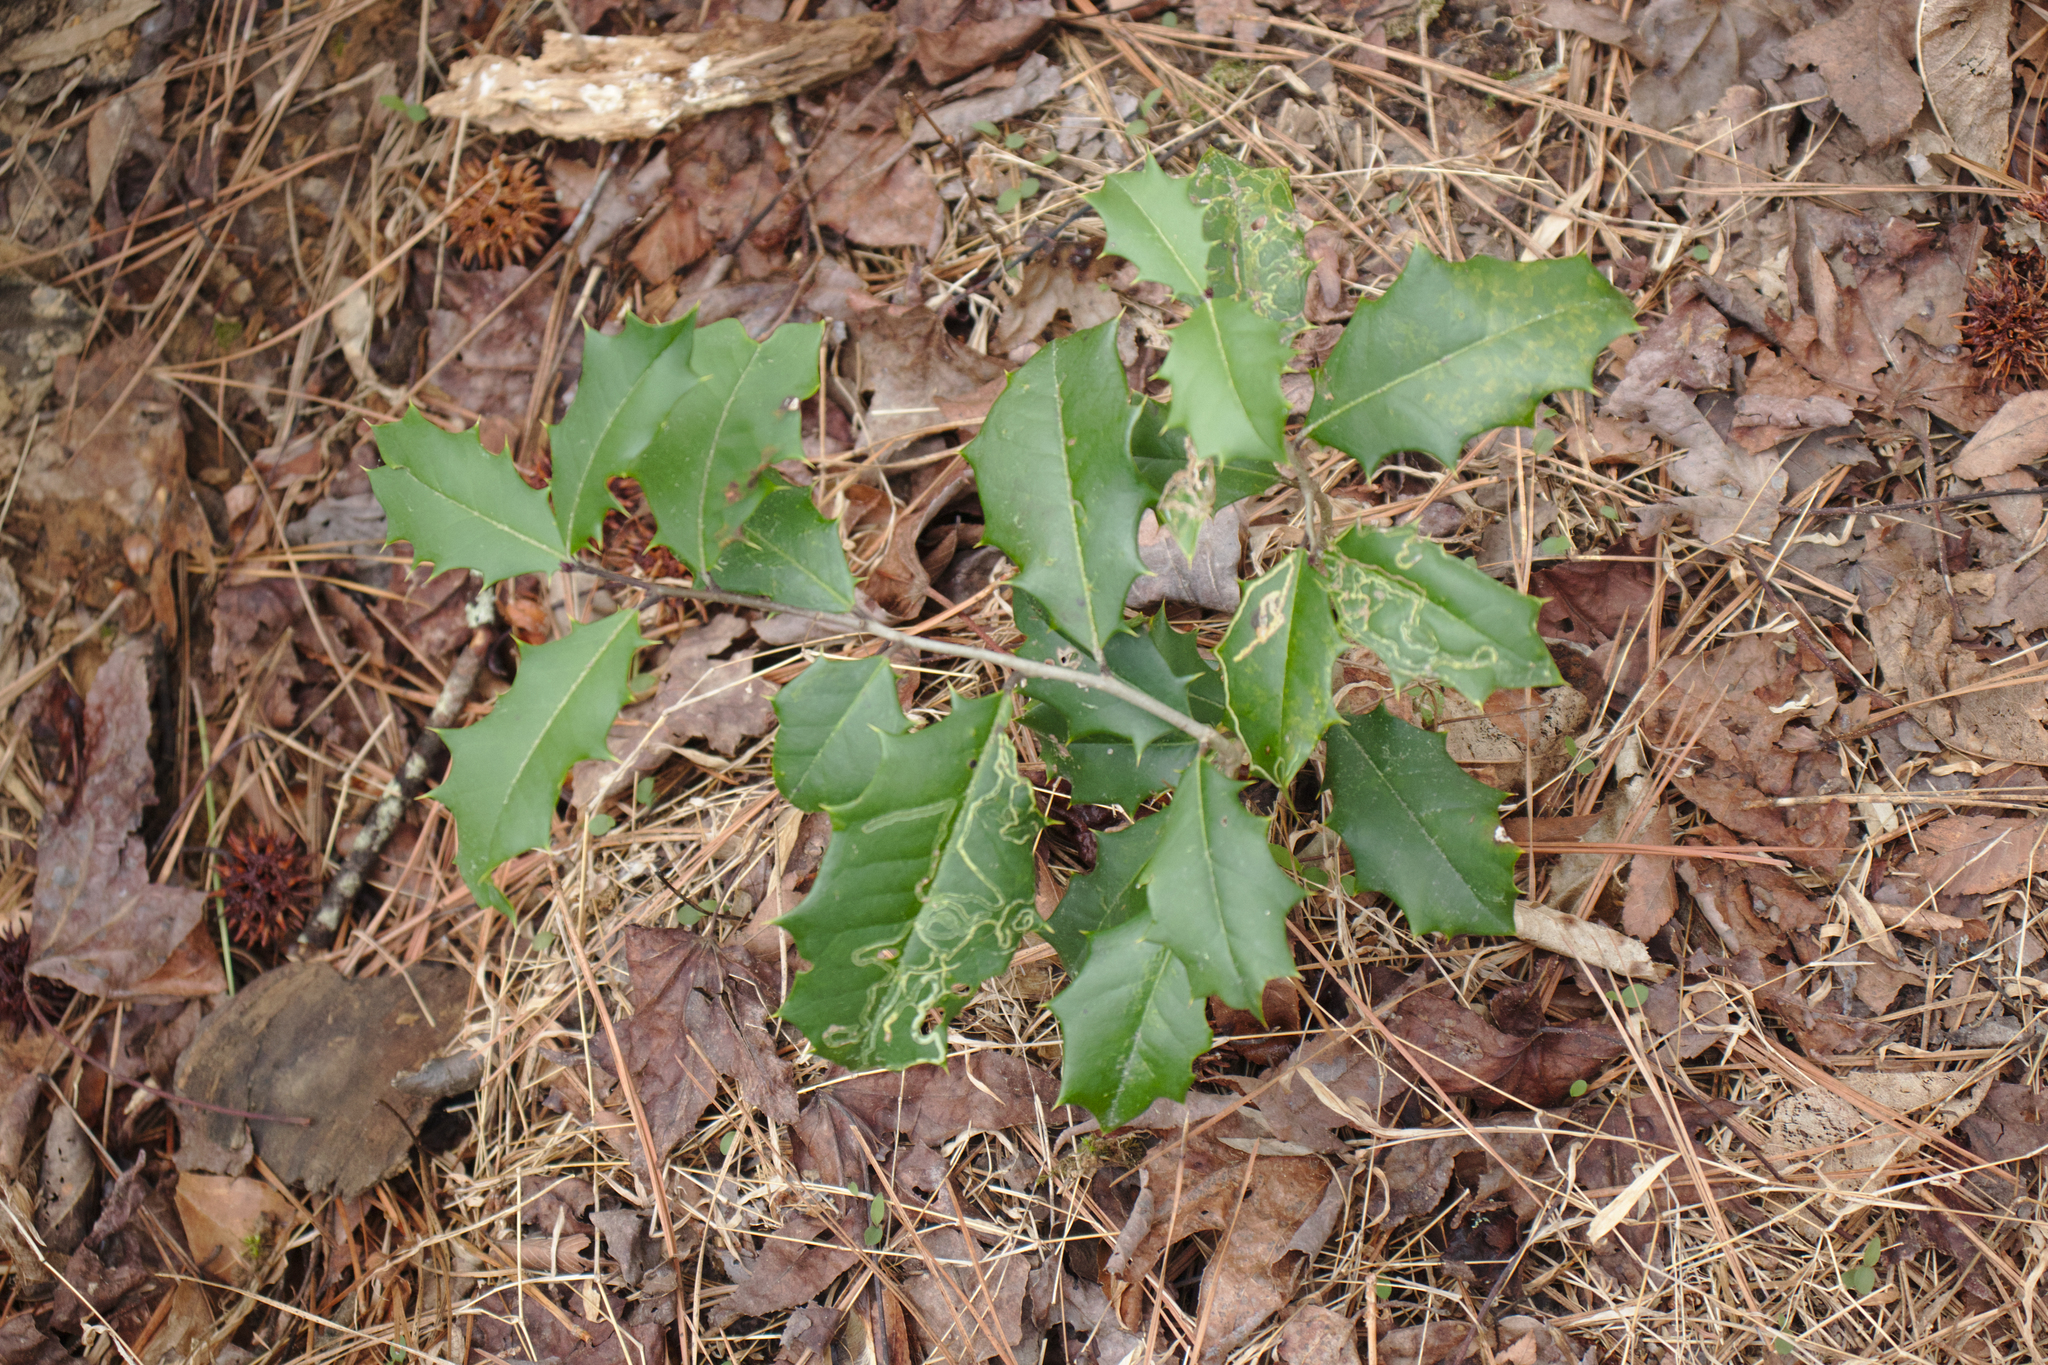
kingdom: Plantae
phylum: Tracheophyta
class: Magnoliopsida
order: Aquifoliales
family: Aquifoliaceae
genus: Ilex
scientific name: Ilex opaca
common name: American holly
